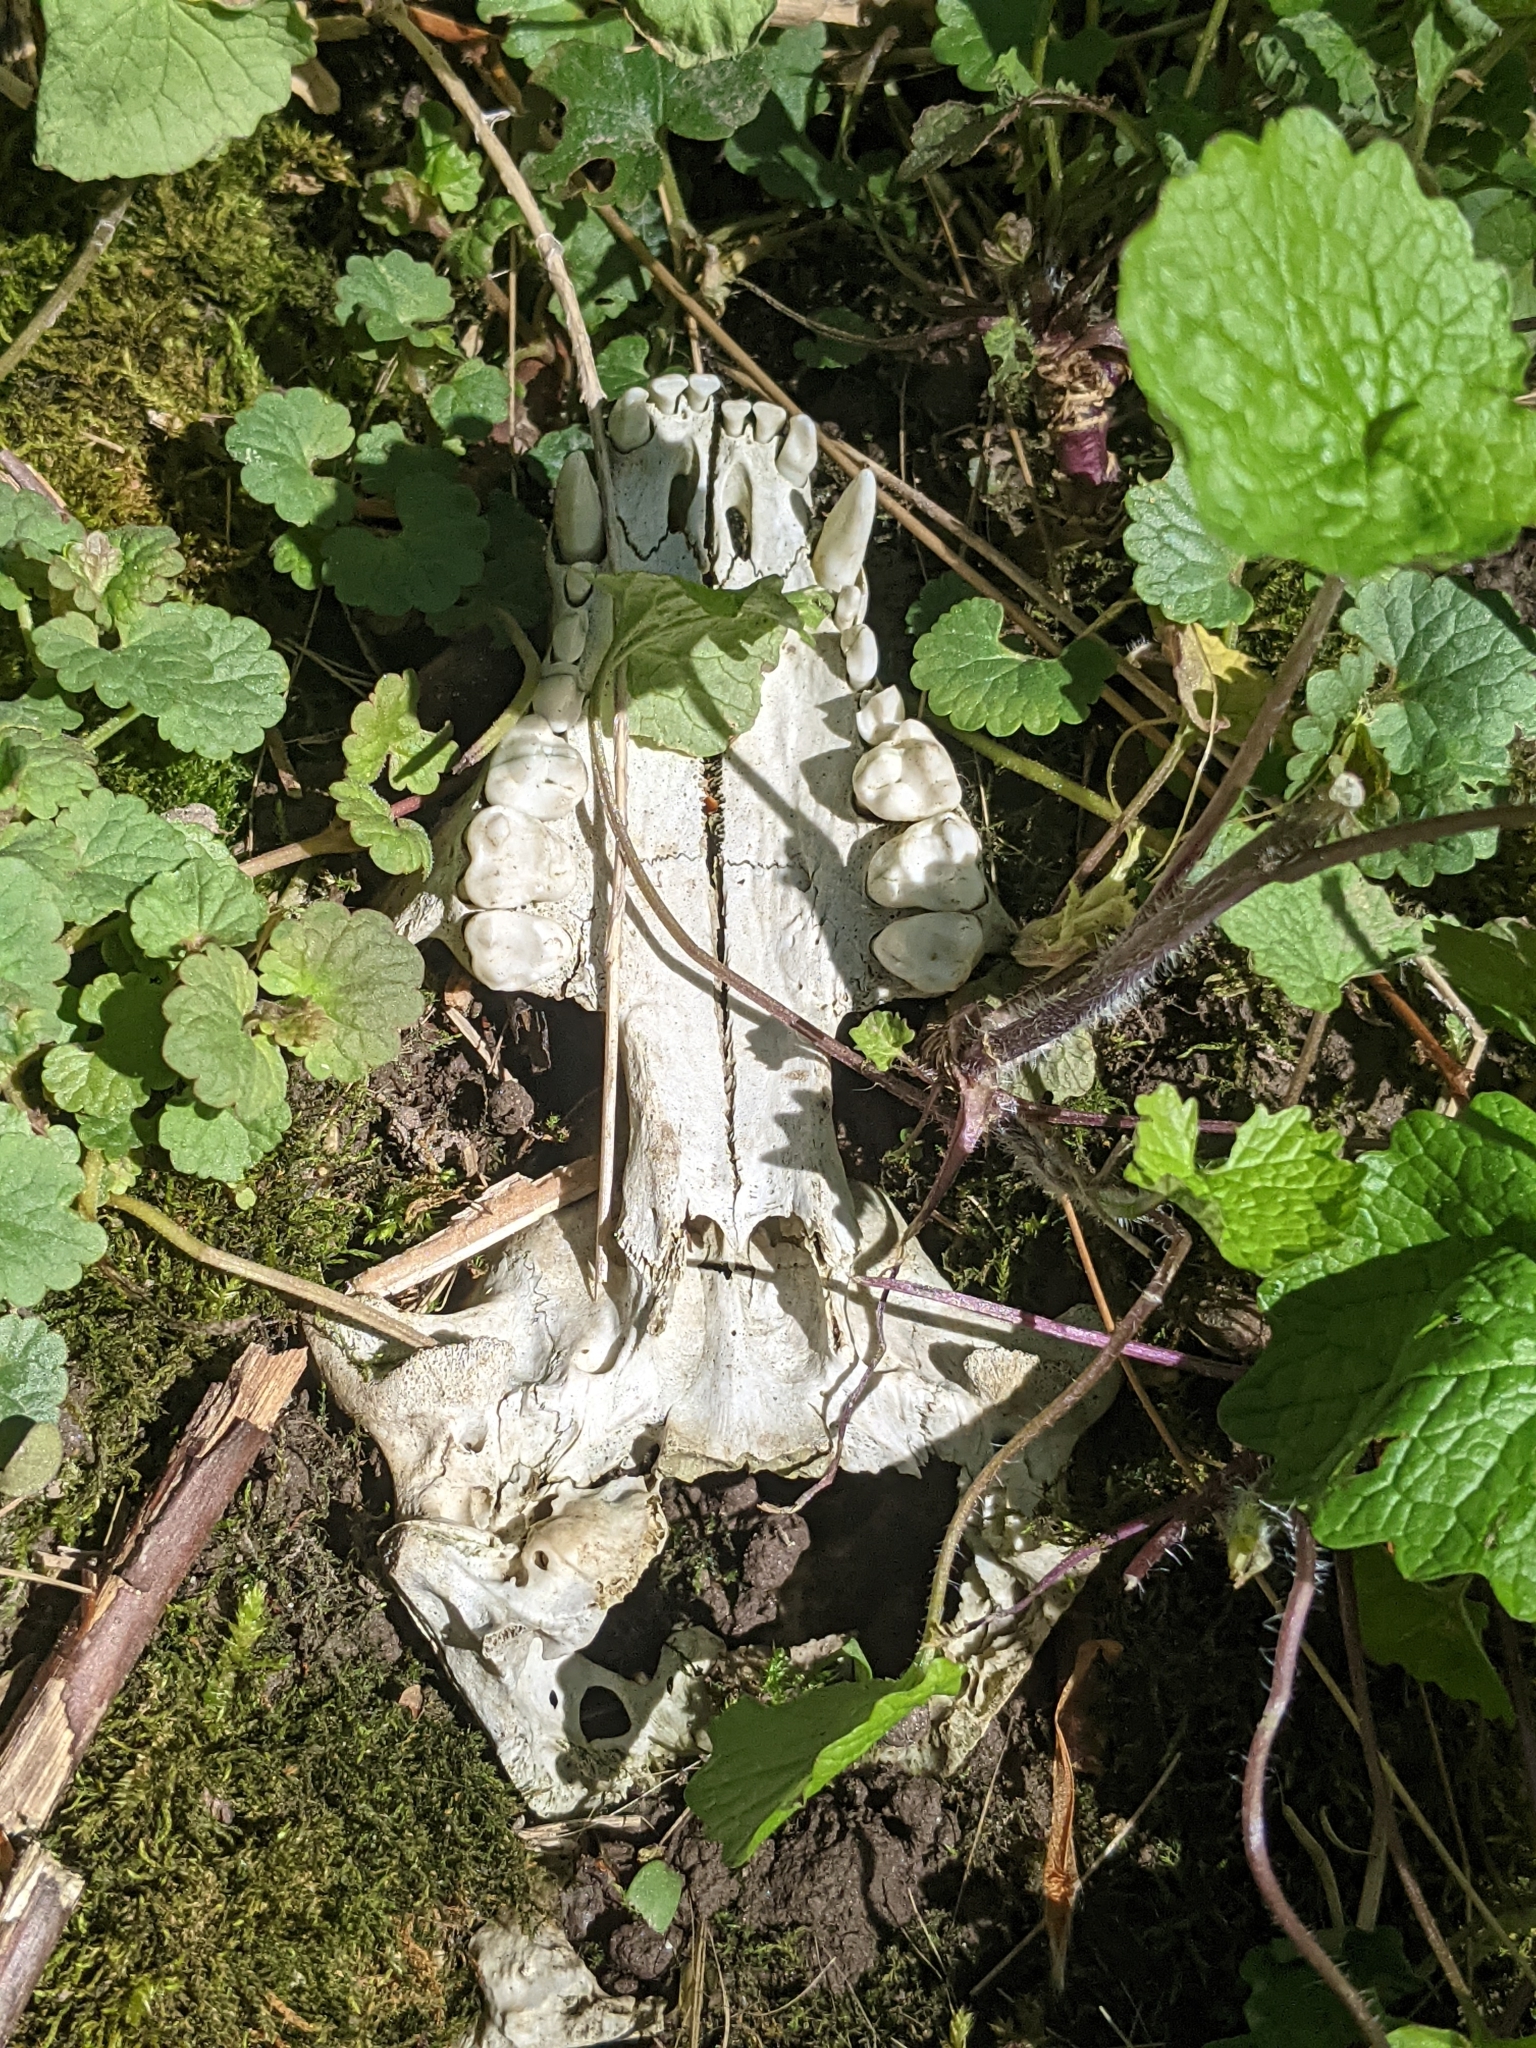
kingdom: Animalia
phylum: Chordata
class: Mammalia
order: Carnivora
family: Procyonidae
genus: Procyon
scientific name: Procyon lotor
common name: Raccoon
